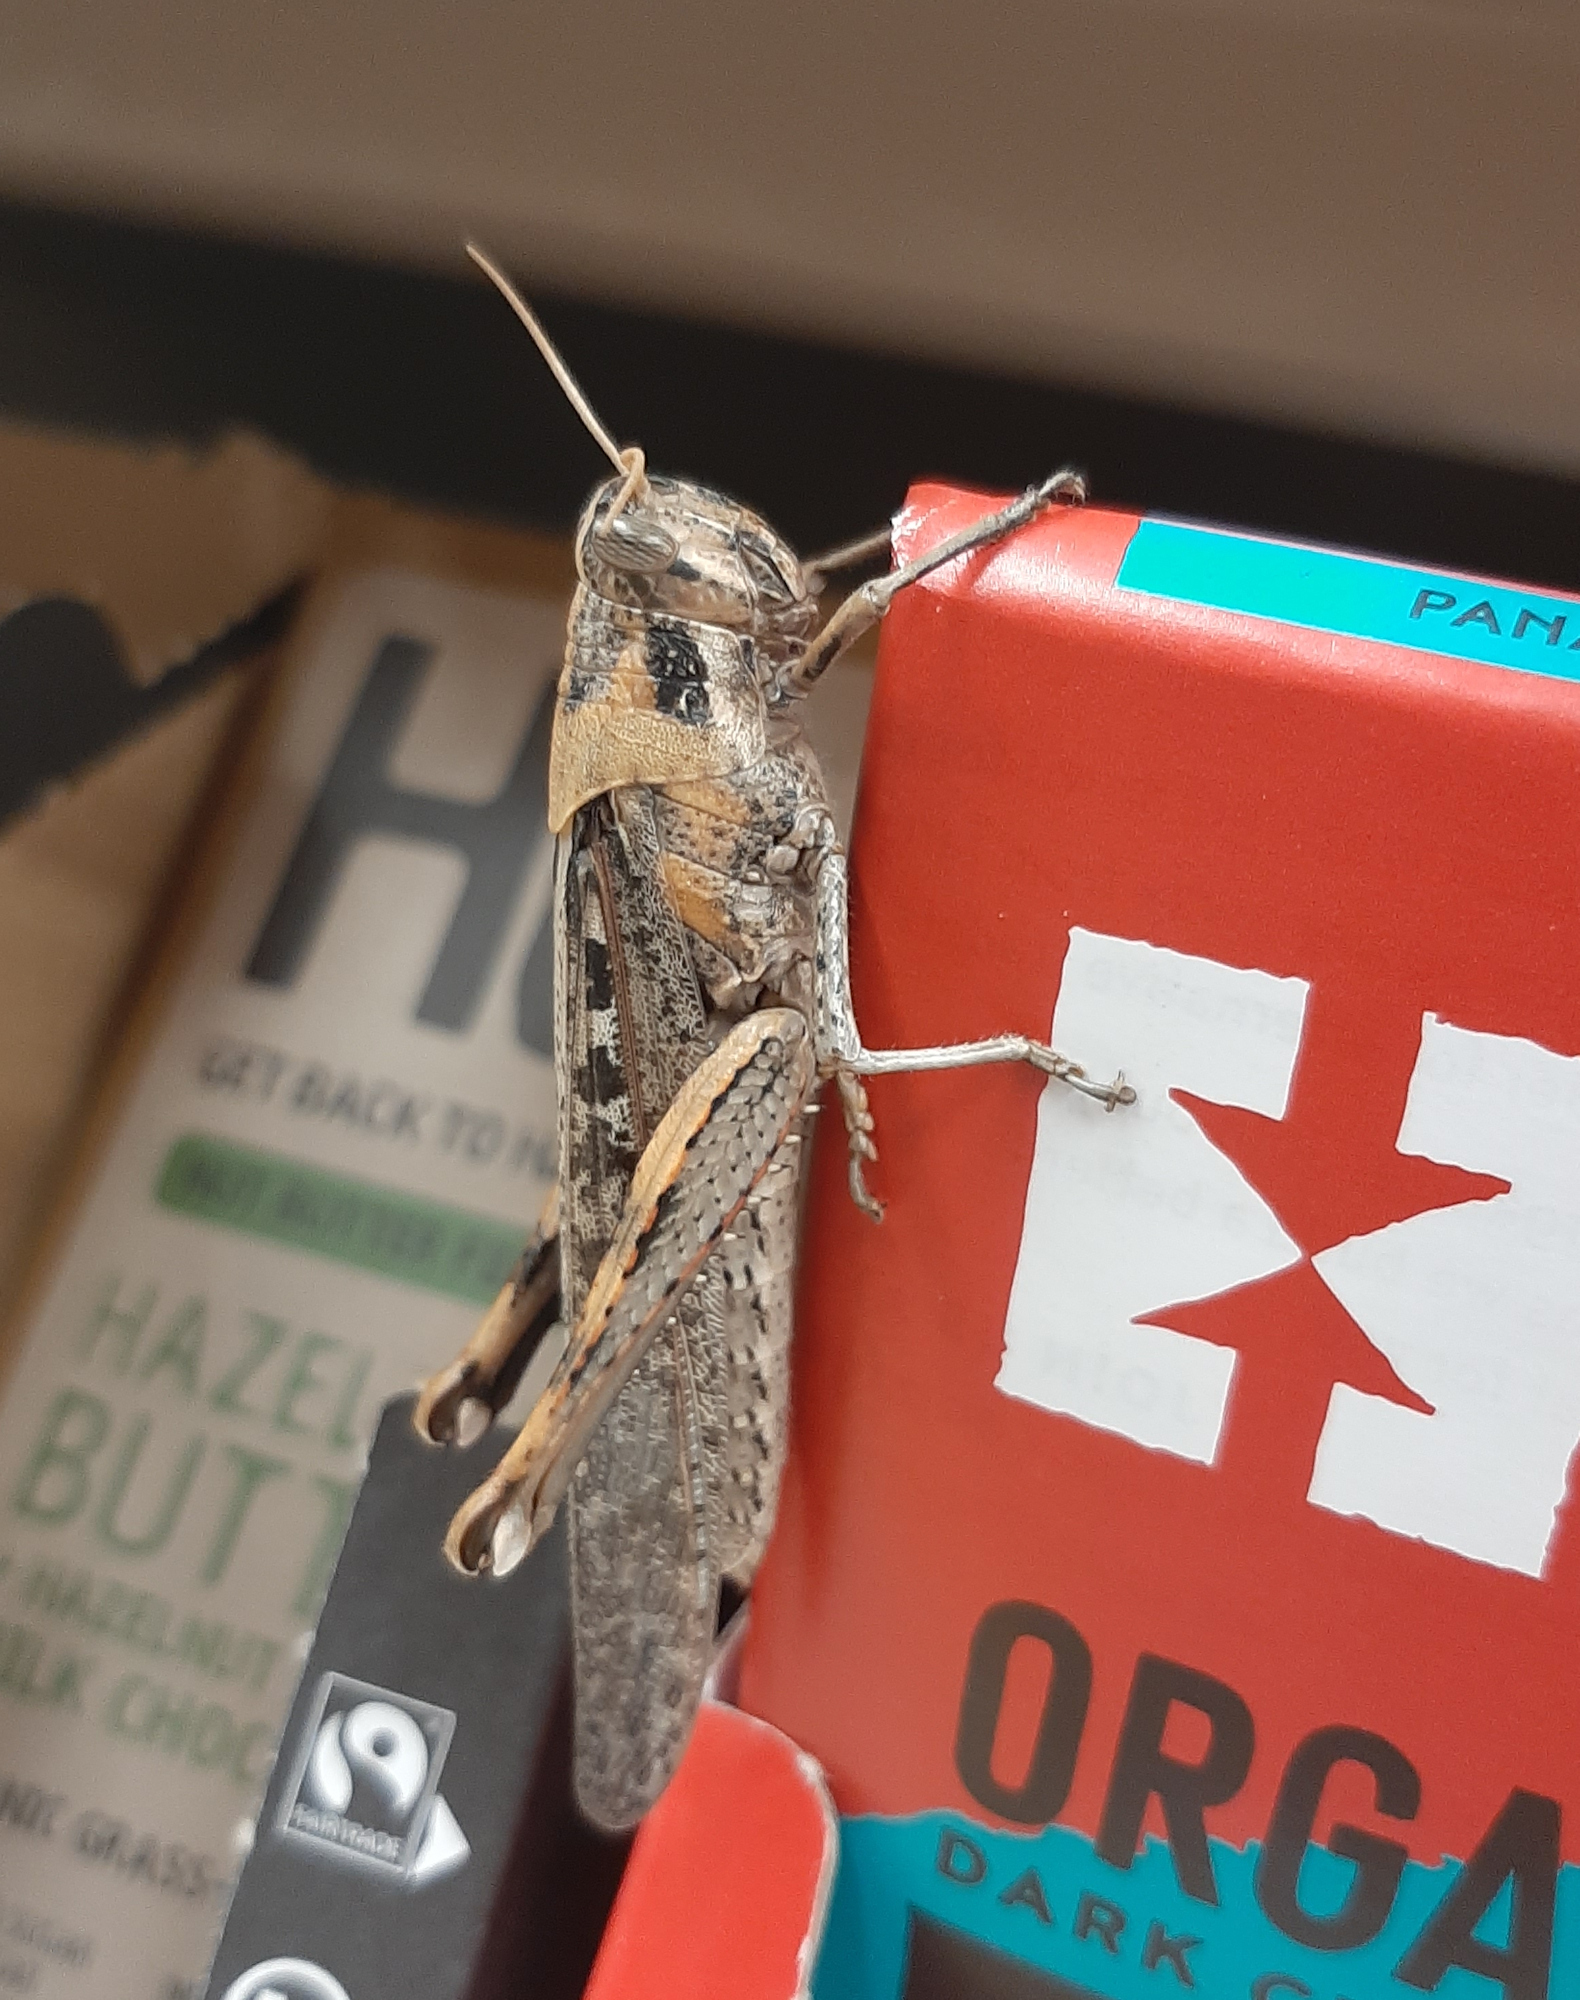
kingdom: Animalia
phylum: Arthropoda
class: Insecta
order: Orthoptera
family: Acrididae
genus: Schistocerca
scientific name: Schistocerca nitens
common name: Vagrant grasshopper
